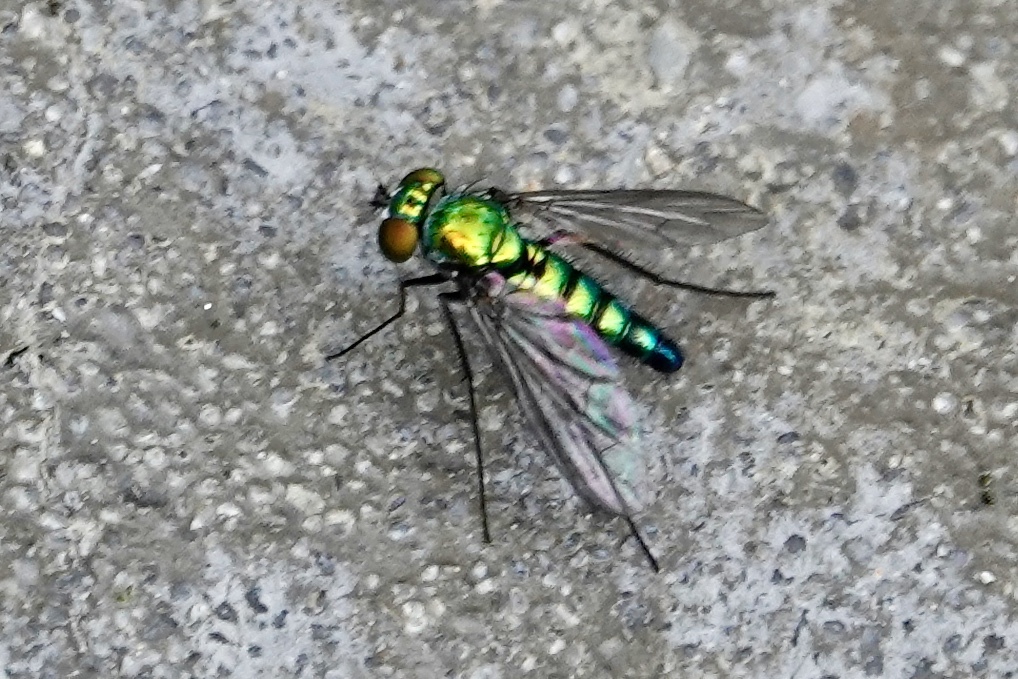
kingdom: Animalia
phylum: Arthropoda
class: Insecta
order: Diptera
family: Dolichopodidae
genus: Condylostylus
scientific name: Condylostylus longicornis
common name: Long-legged fly
